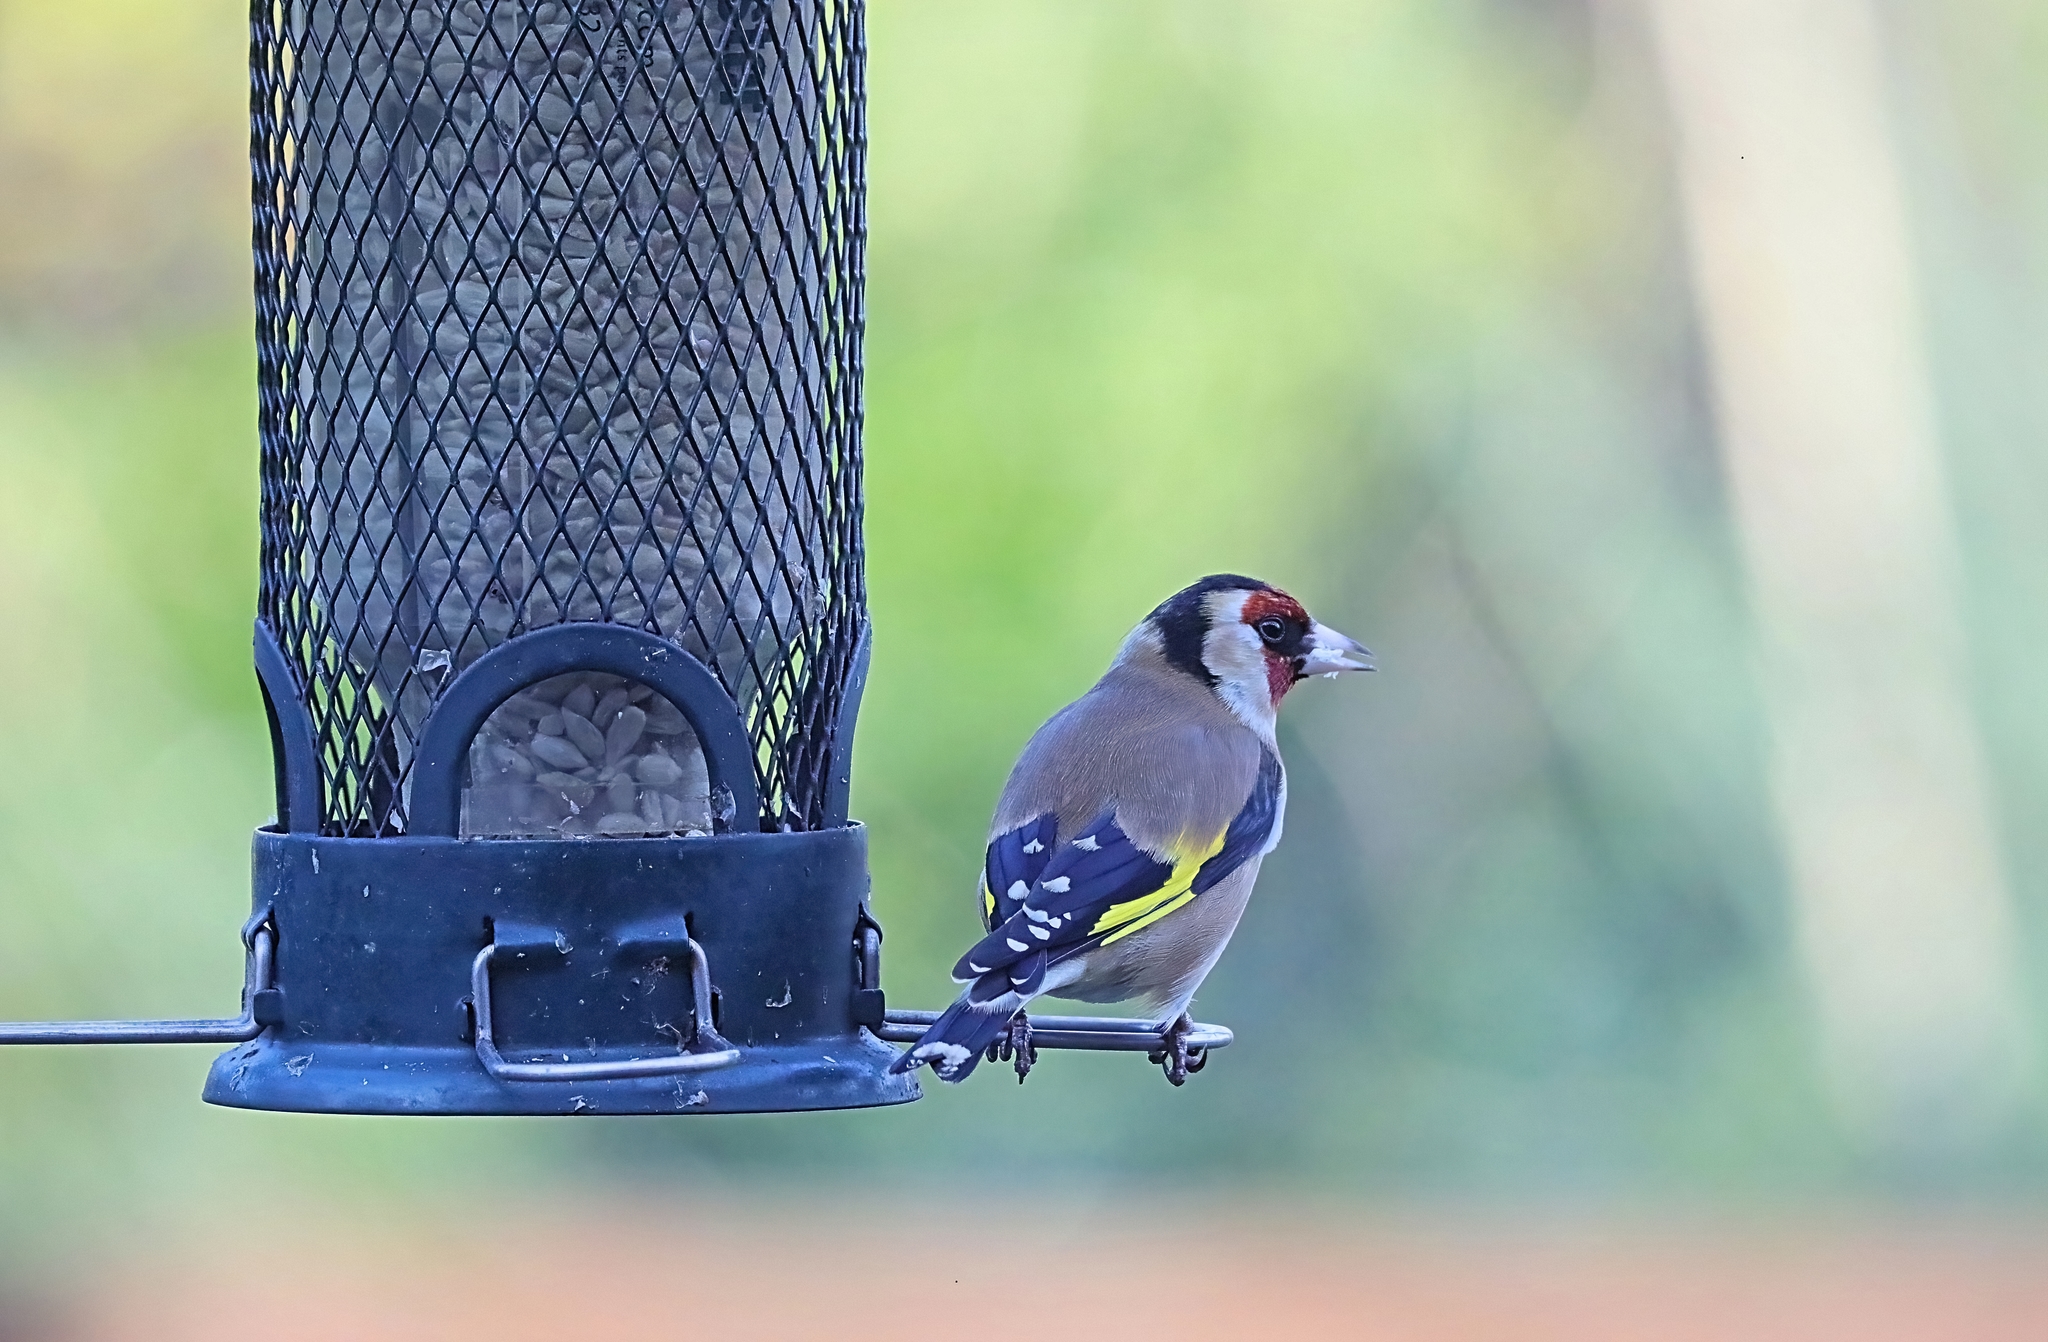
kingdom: Animalia
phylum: Chordata
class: Aves
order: Passeriformes
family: Fringillidae
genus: Carduelis
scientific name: Carduelis carduelis
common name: European goldfinch
